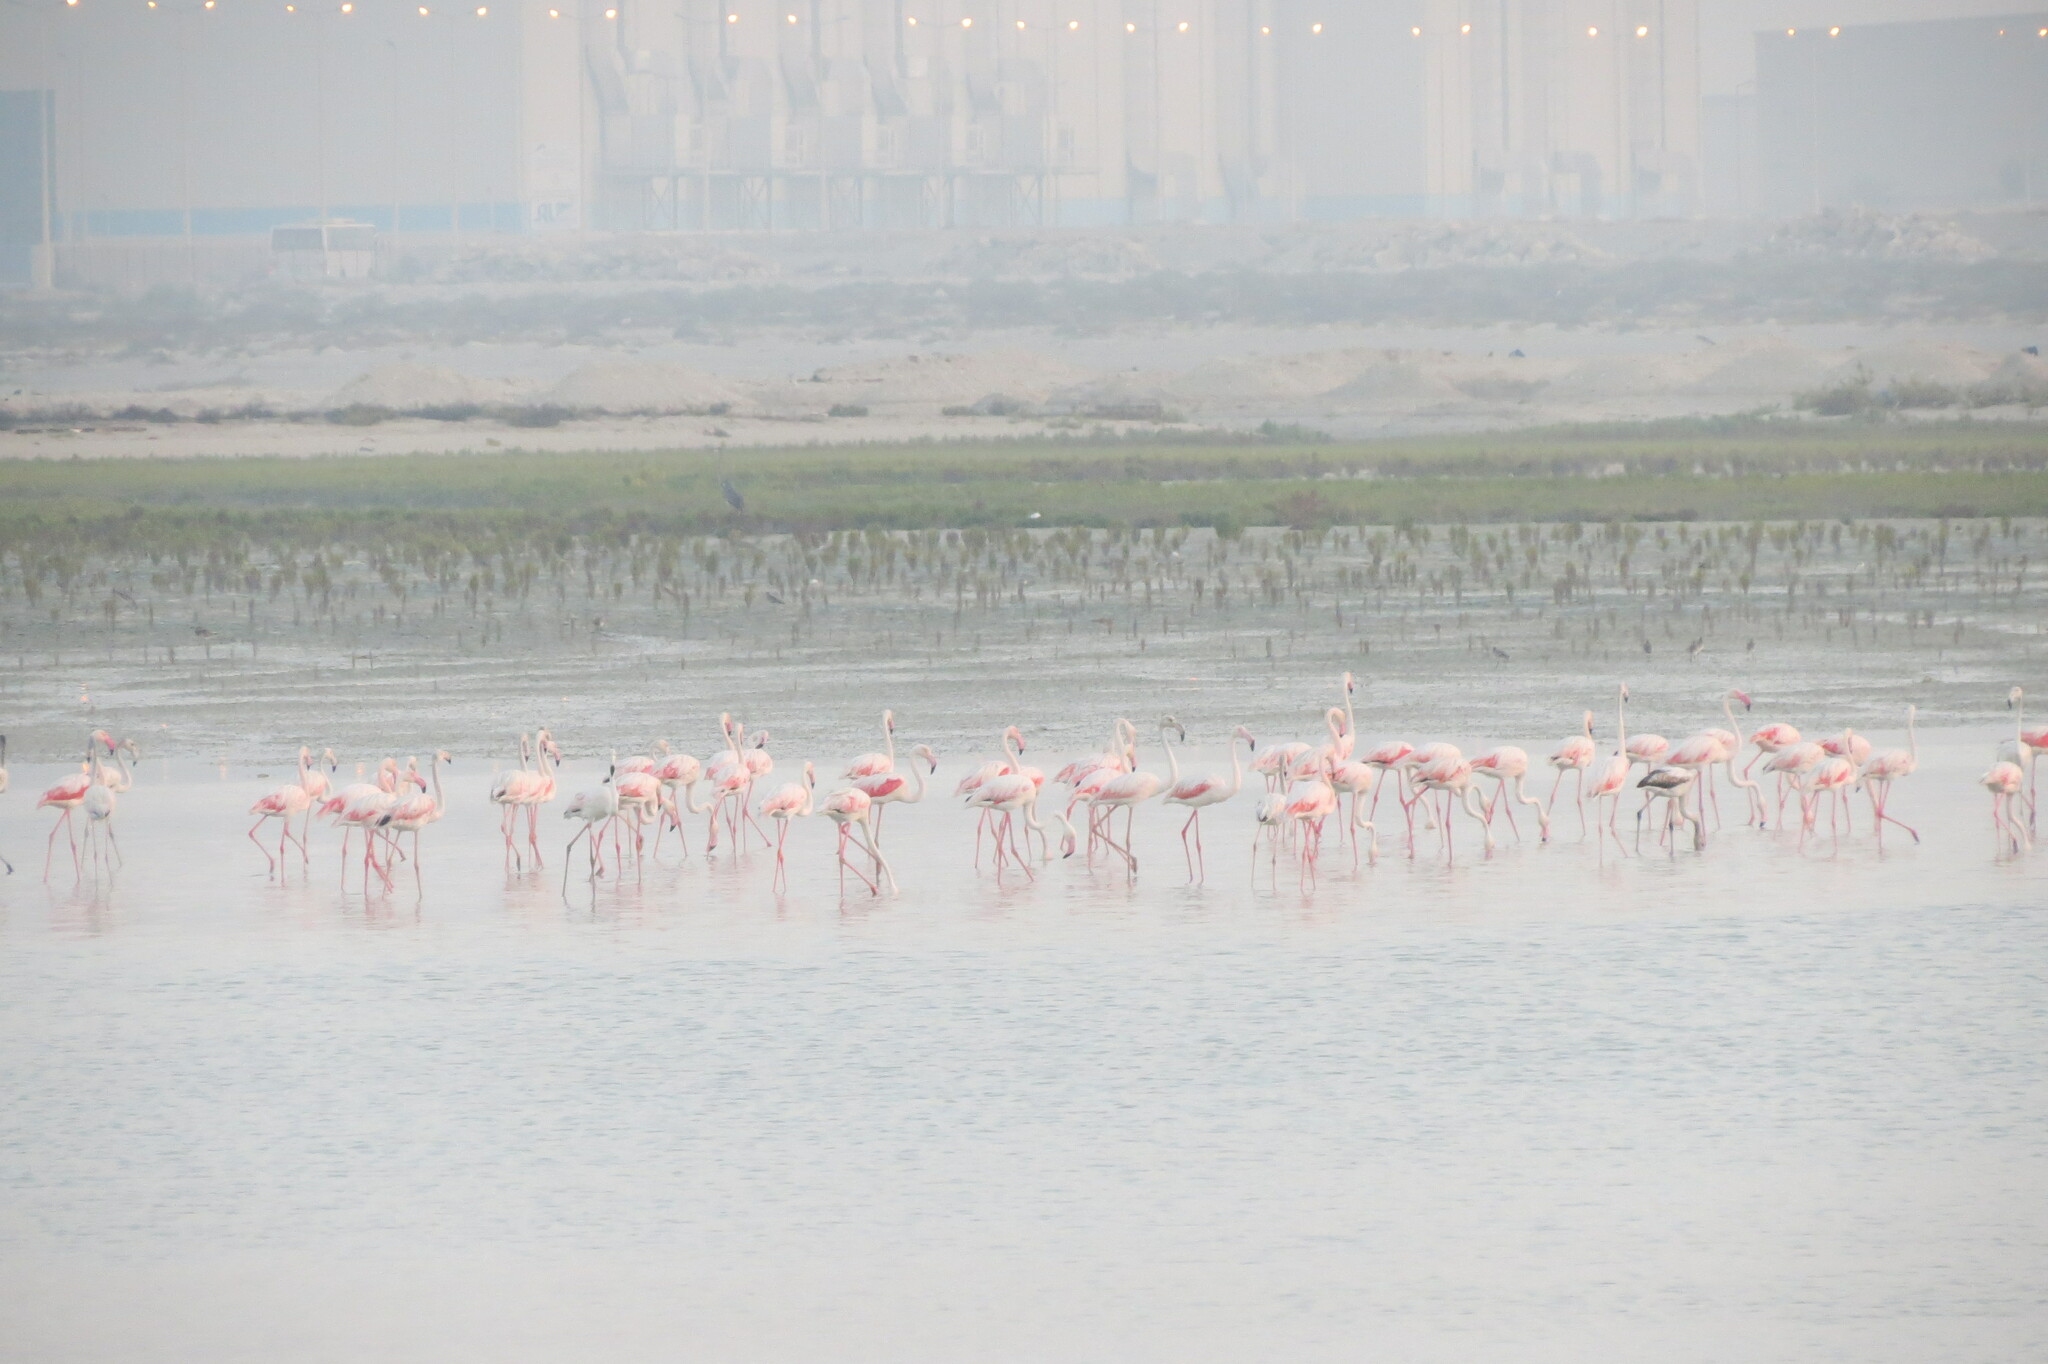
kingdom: Animalia
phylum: Chordata
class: Aves
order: Phoenicopteriformes
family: Phoenicopteridae
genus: Phoenicopterus
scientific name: Phoenicopterus roseus
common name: Greater flamingo
